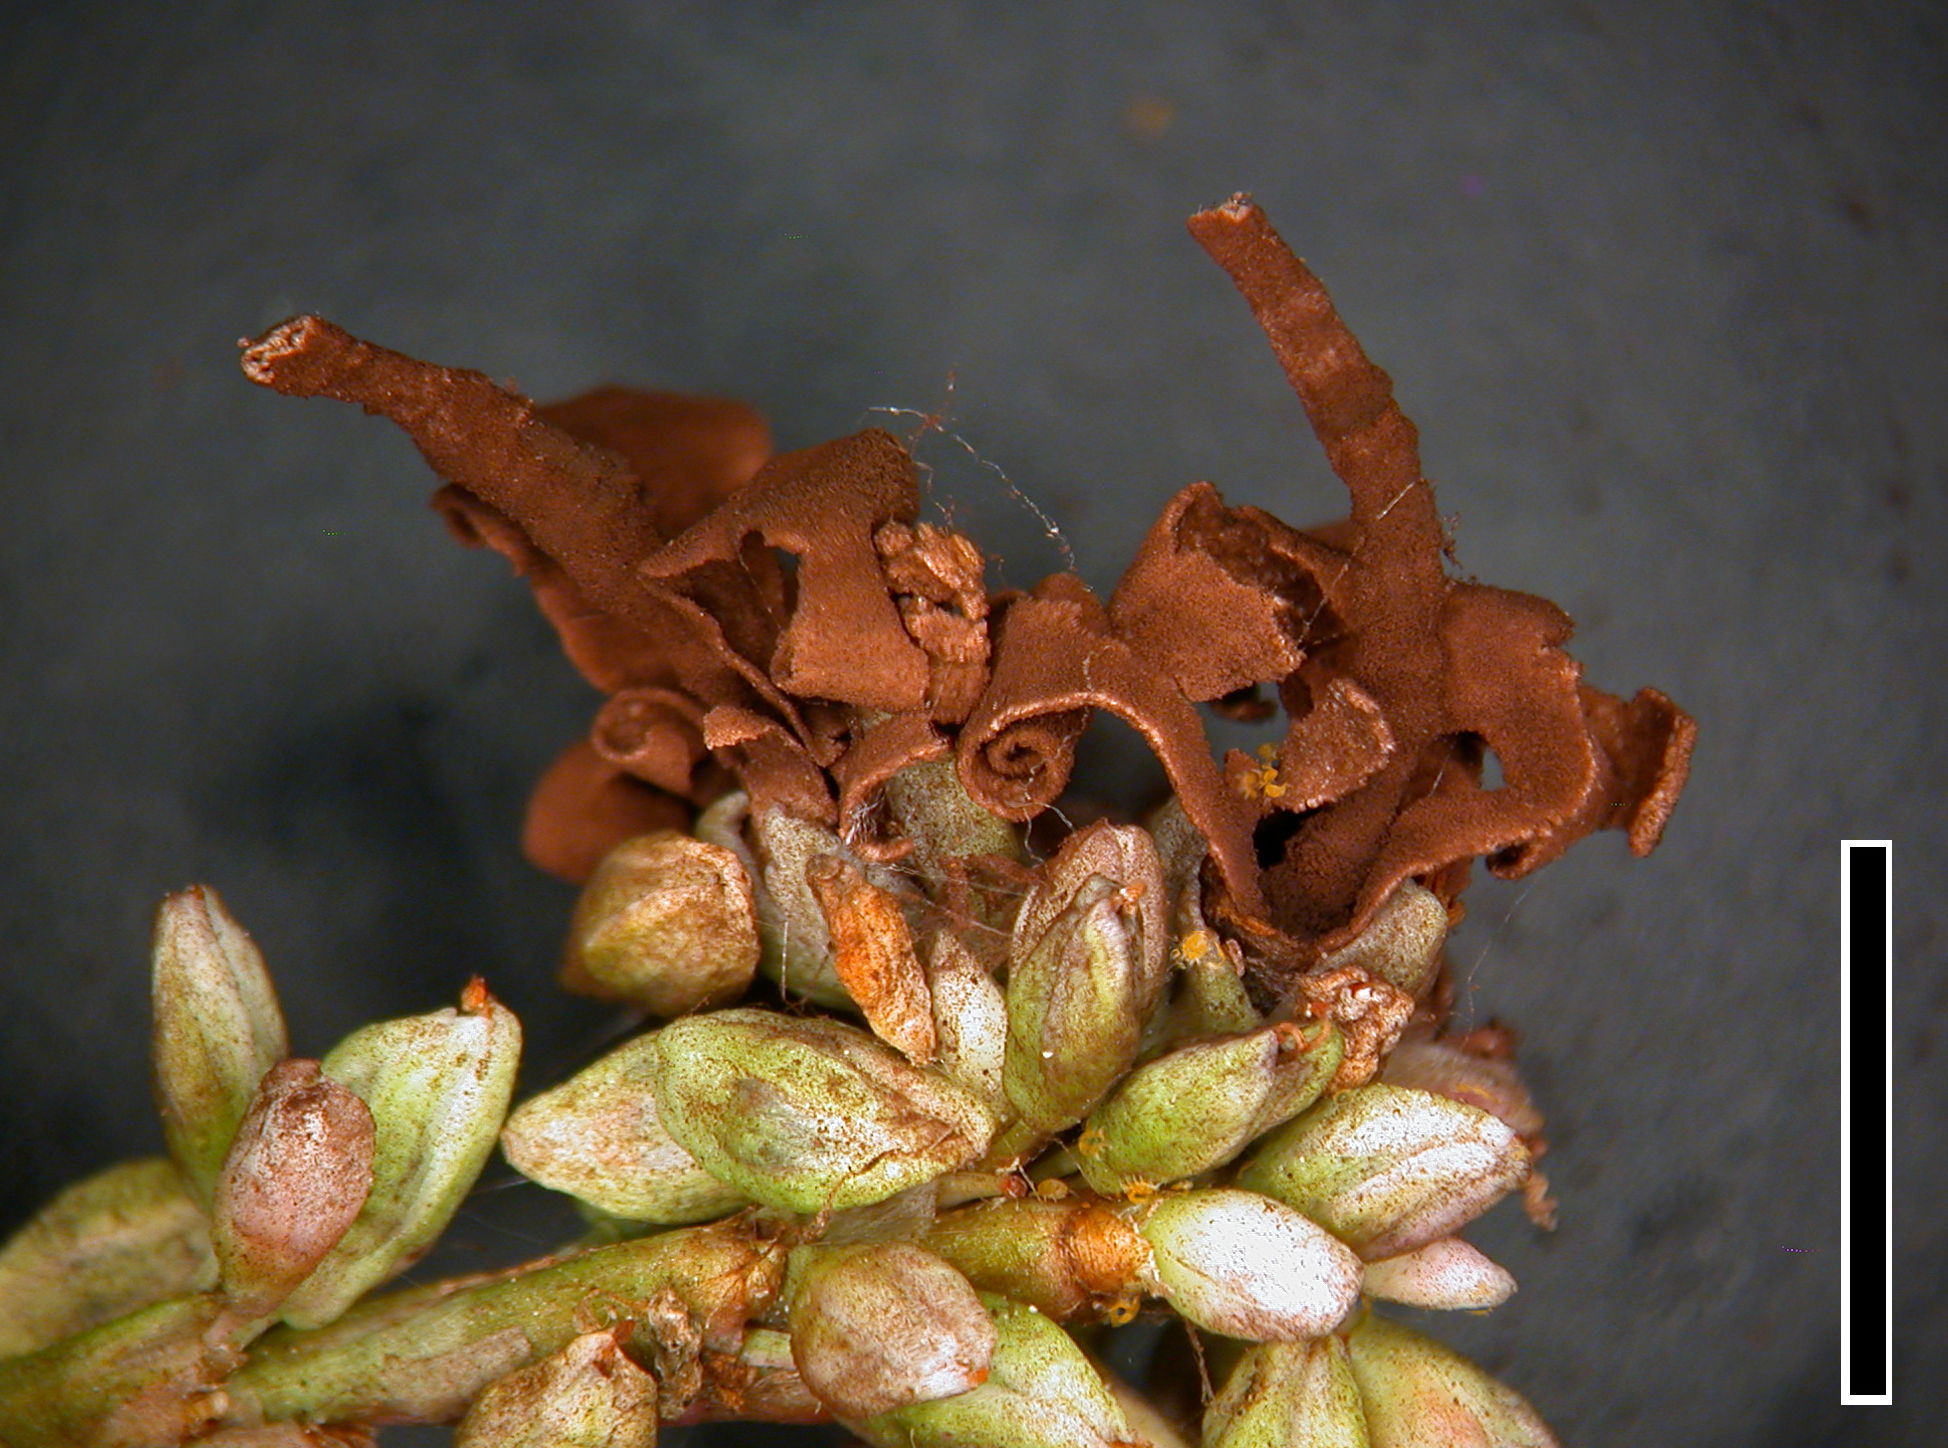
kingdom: Fungi
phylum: Basidiomycota
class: Microbotryomycetes
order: Microbotryales
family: Microbotryaceae
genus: Sphacelotheca
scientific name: Sphacelotheca polygoni-serrulati
